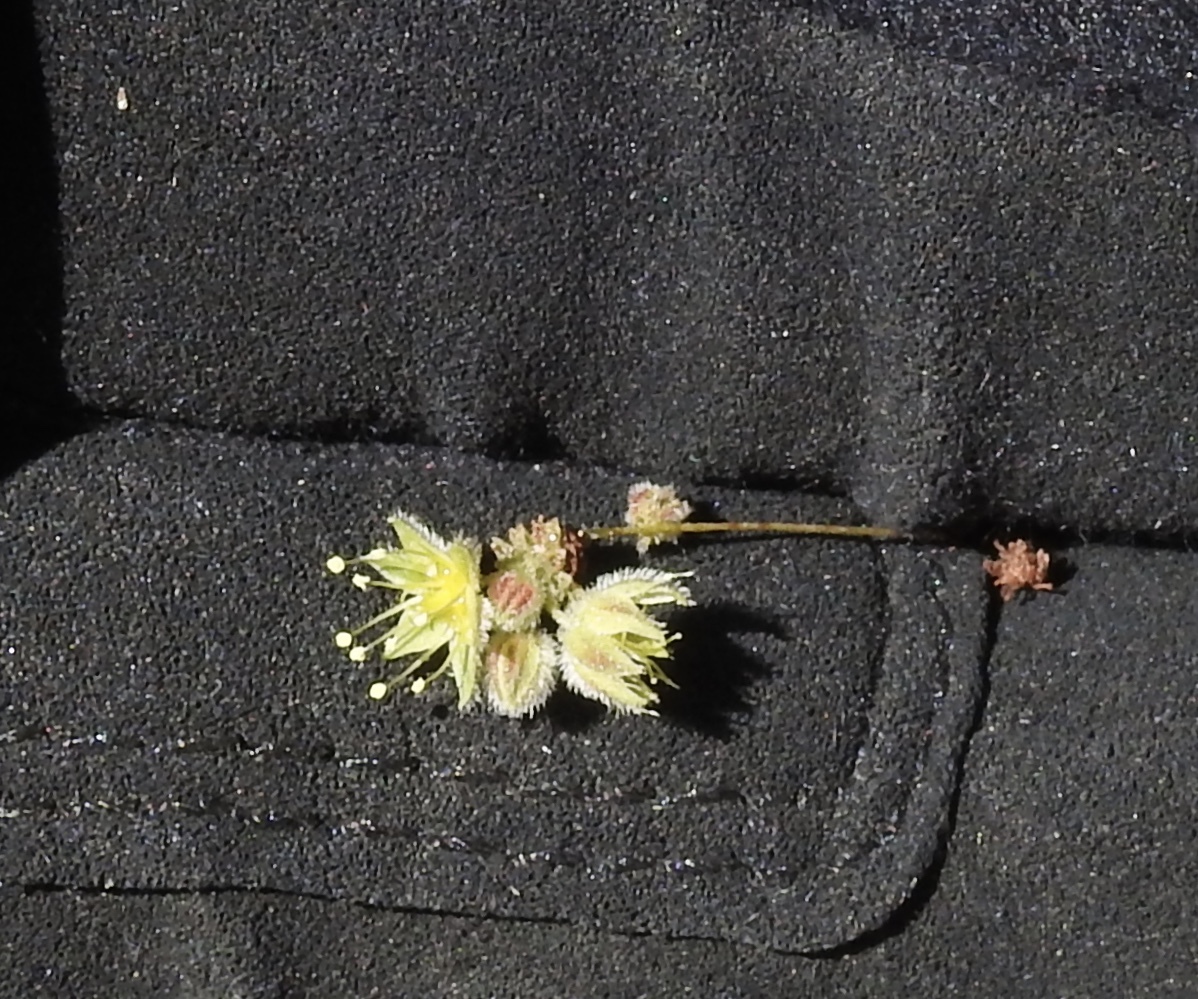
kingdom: Plantae
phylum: Tracheophyta
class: Magnoliopsida
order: Caryophyllales
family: Polygonaceae
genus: Eriogonum
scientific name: Eriogonum inflatum
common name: Desert trumpet
